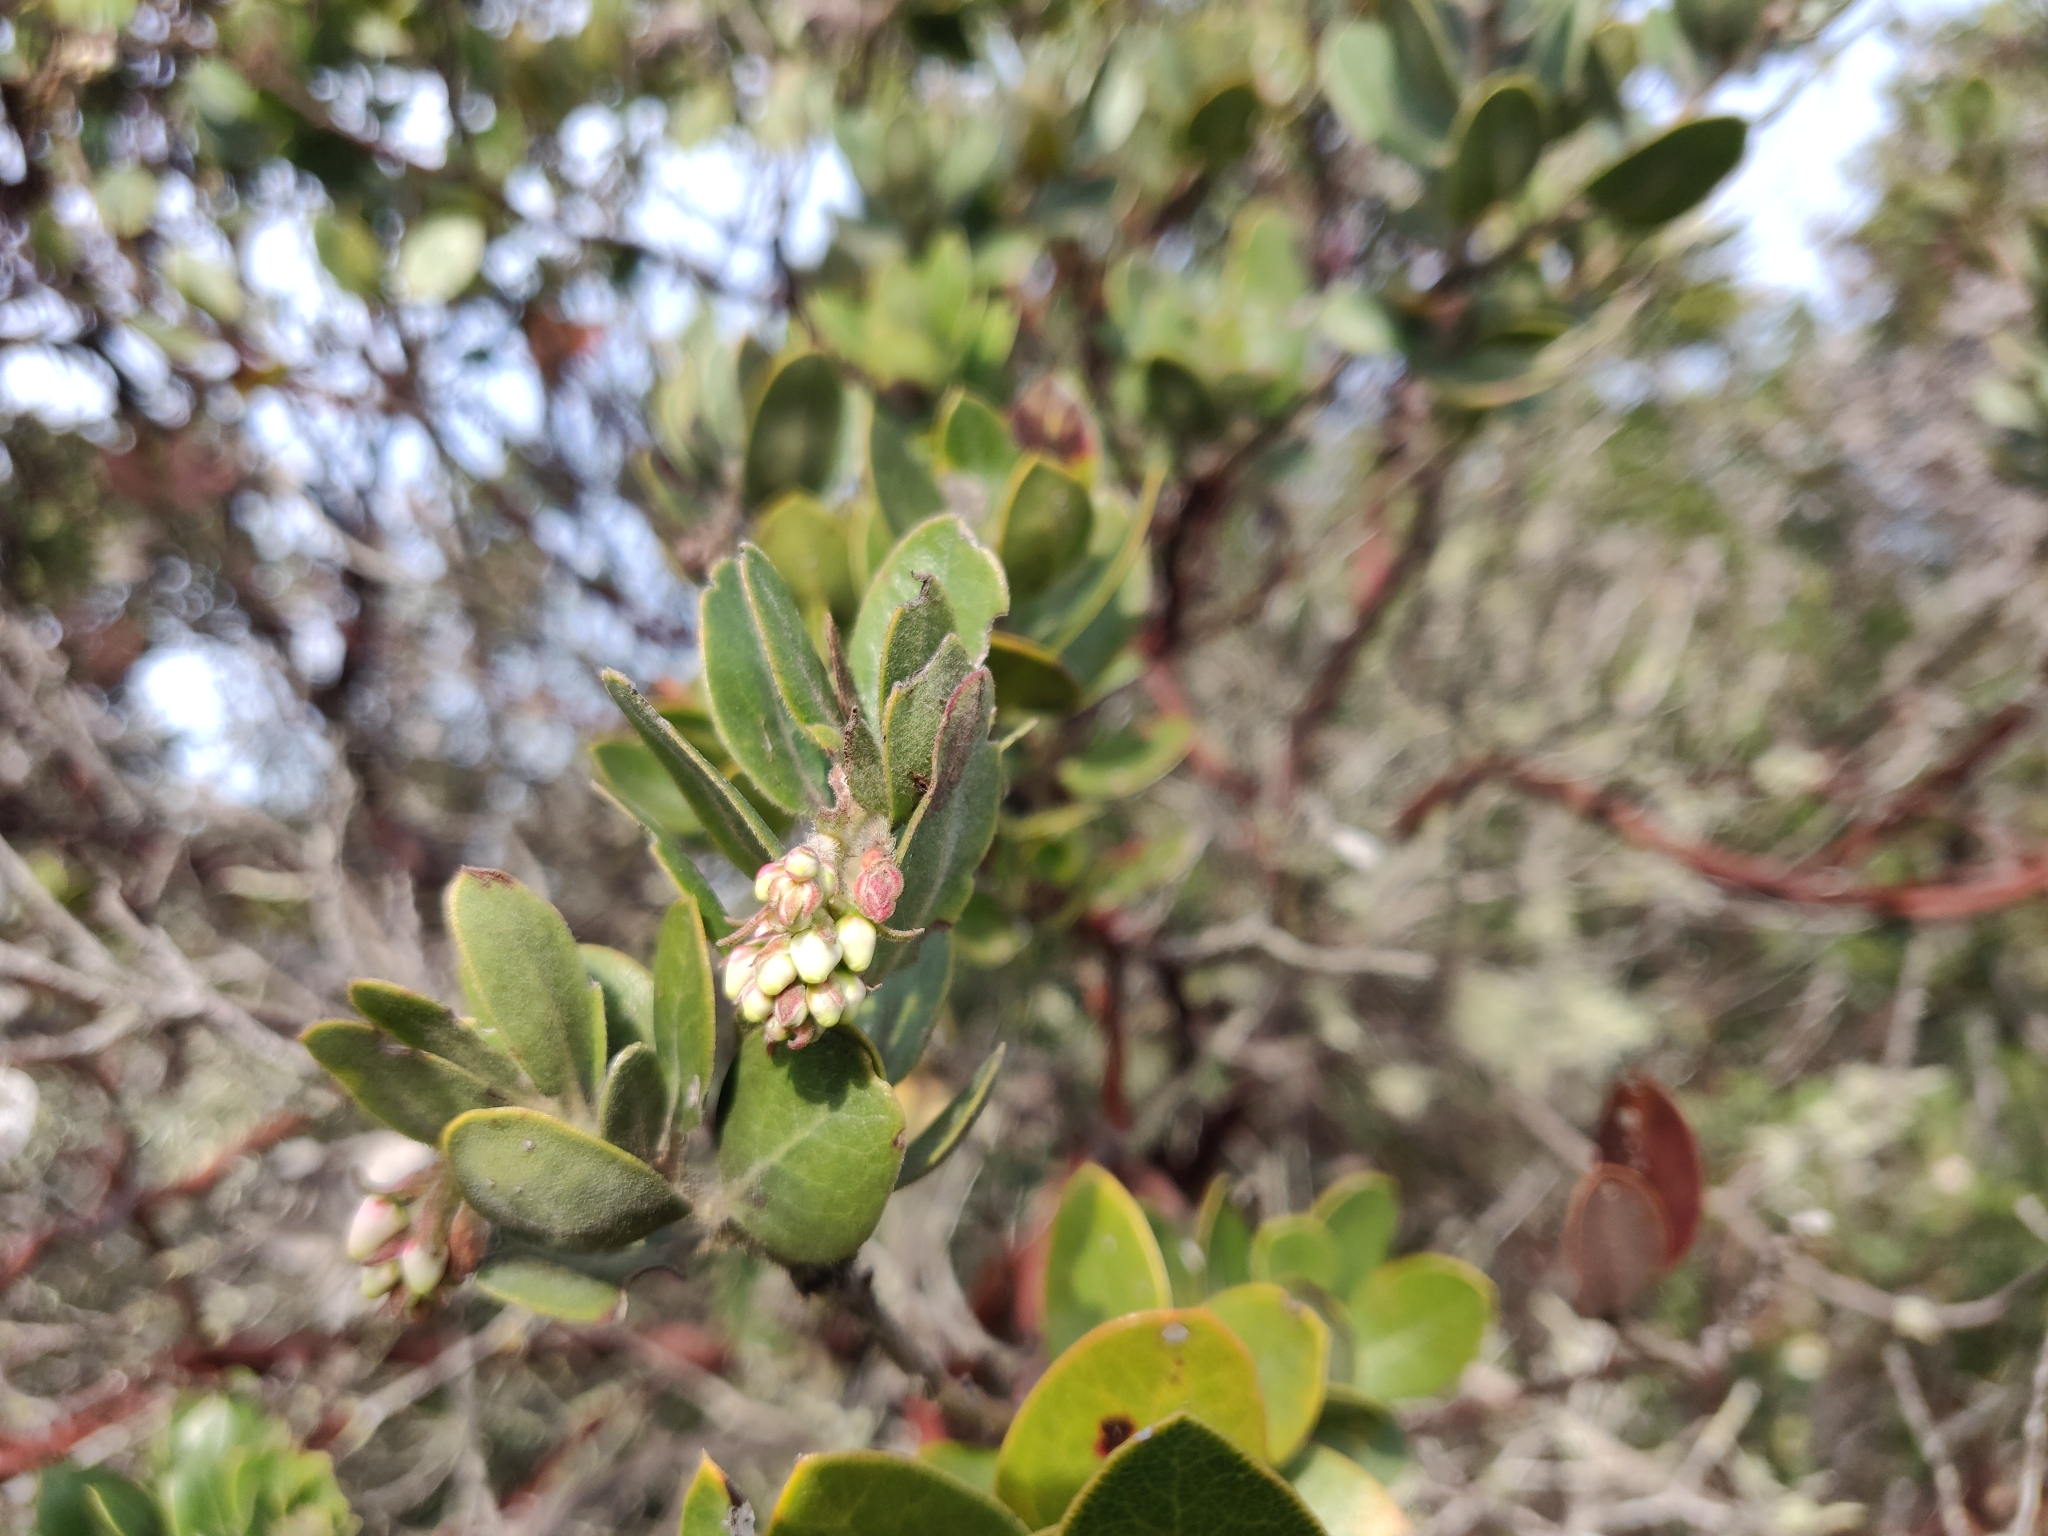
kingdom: Plantae
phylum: Tracheophyta
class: Magnoliopsida
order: Ericales
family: Ericaceae
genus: Arctostaphylos
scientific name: Arctostaphylos crustacea
